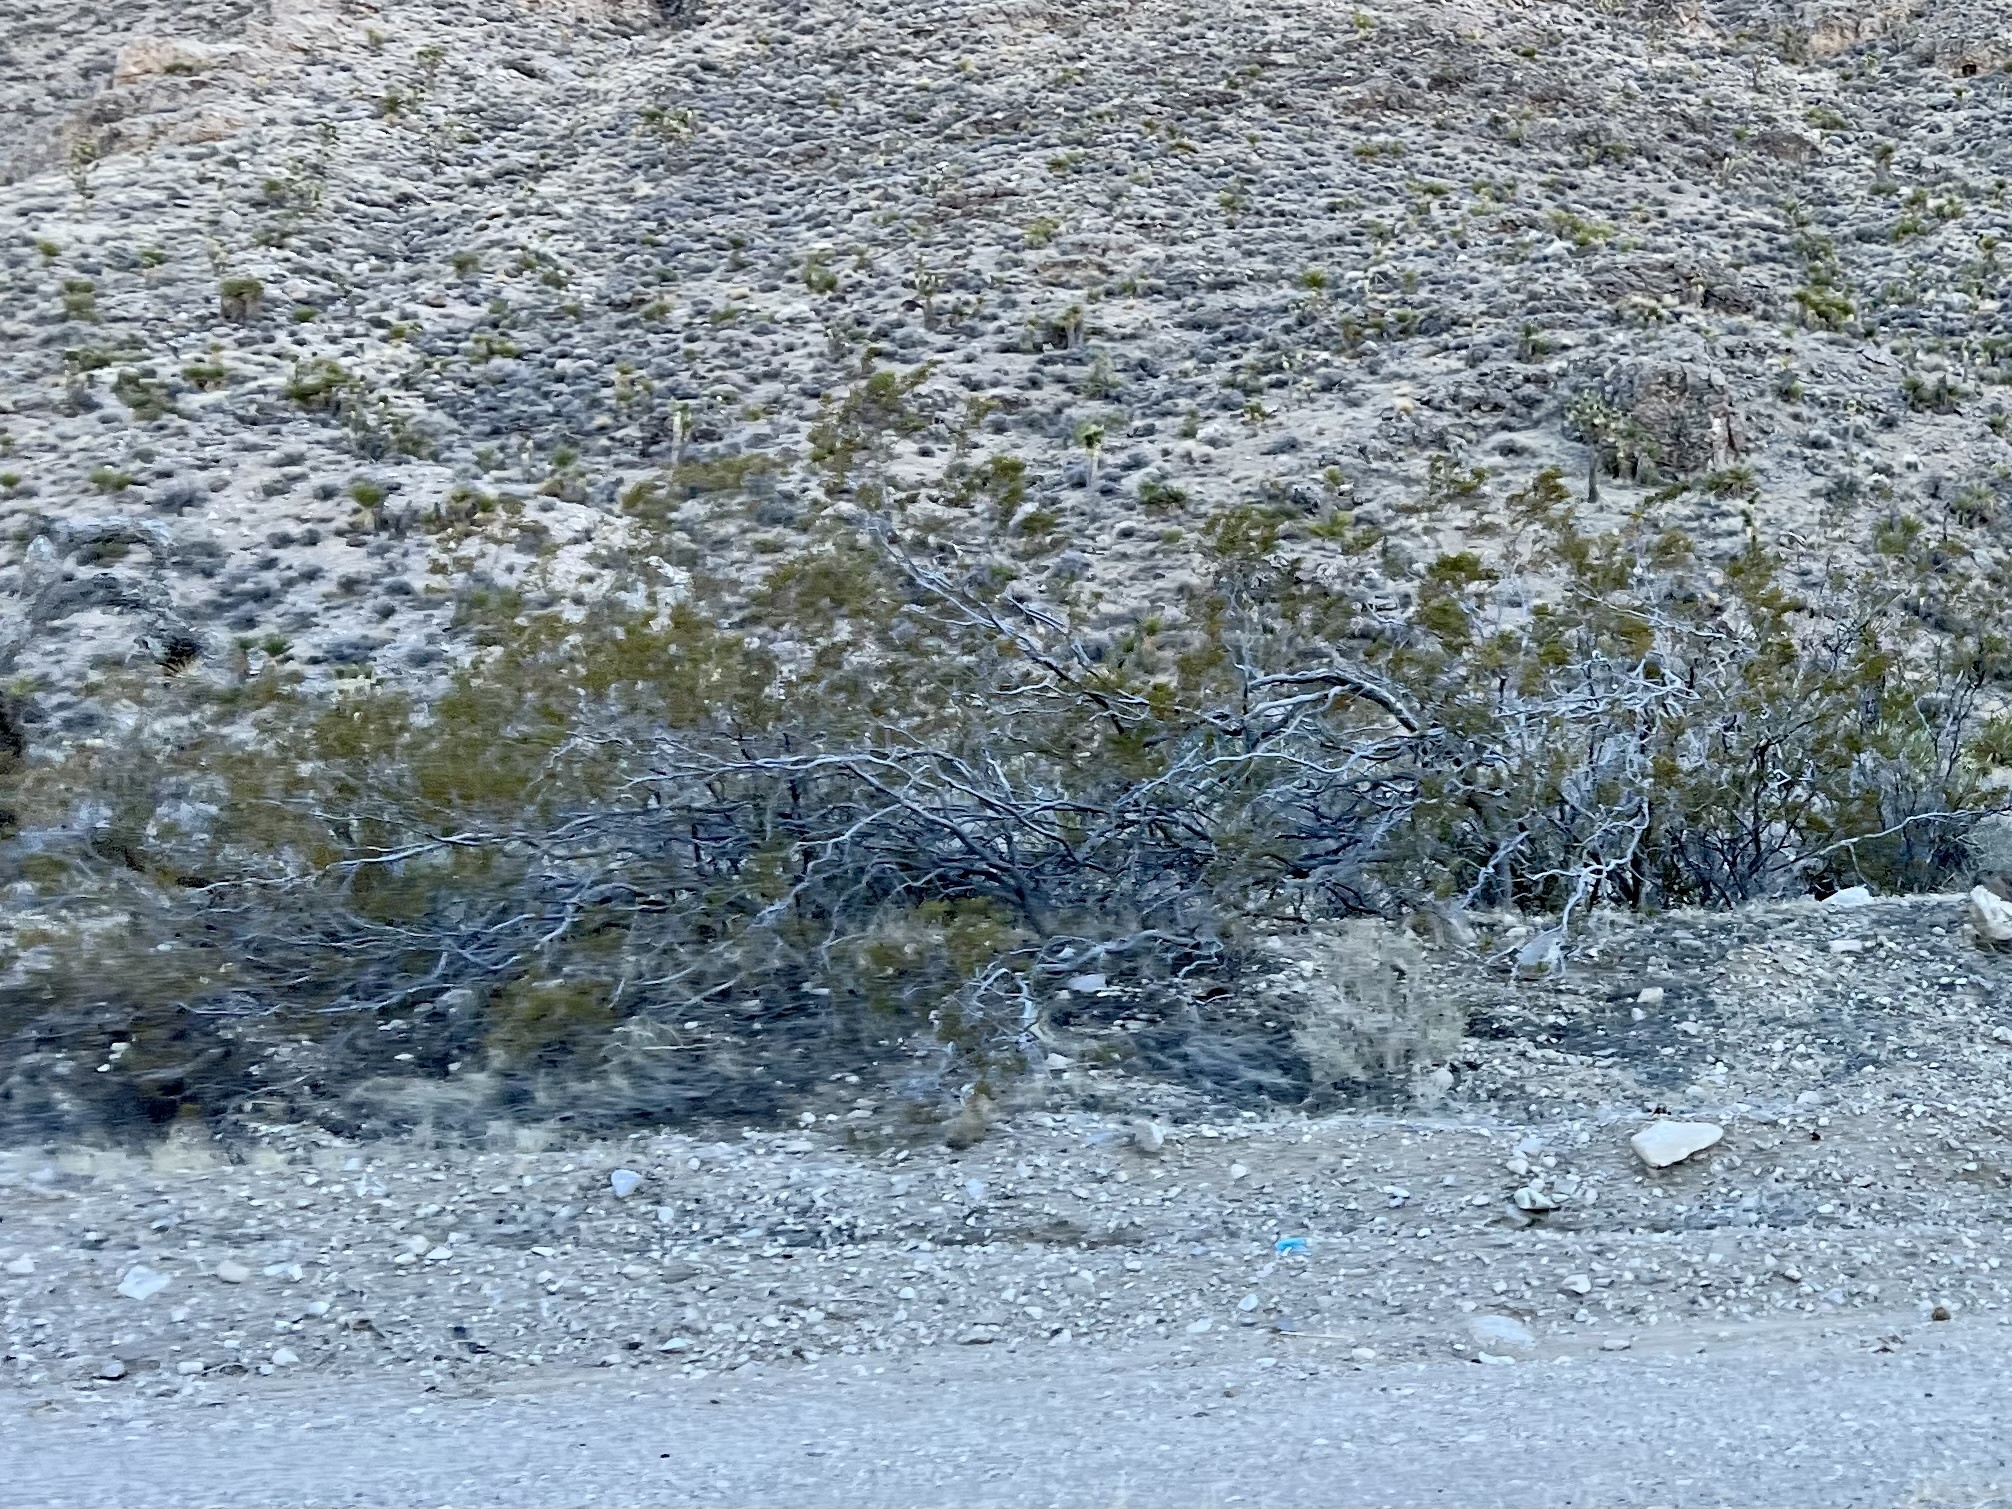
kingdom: Plantae
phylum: Tracheophyta
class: Magnoliopsida
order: Zygophyllales
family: Zygophyllaceae
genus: Larrea
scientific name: Larrea tridentata
